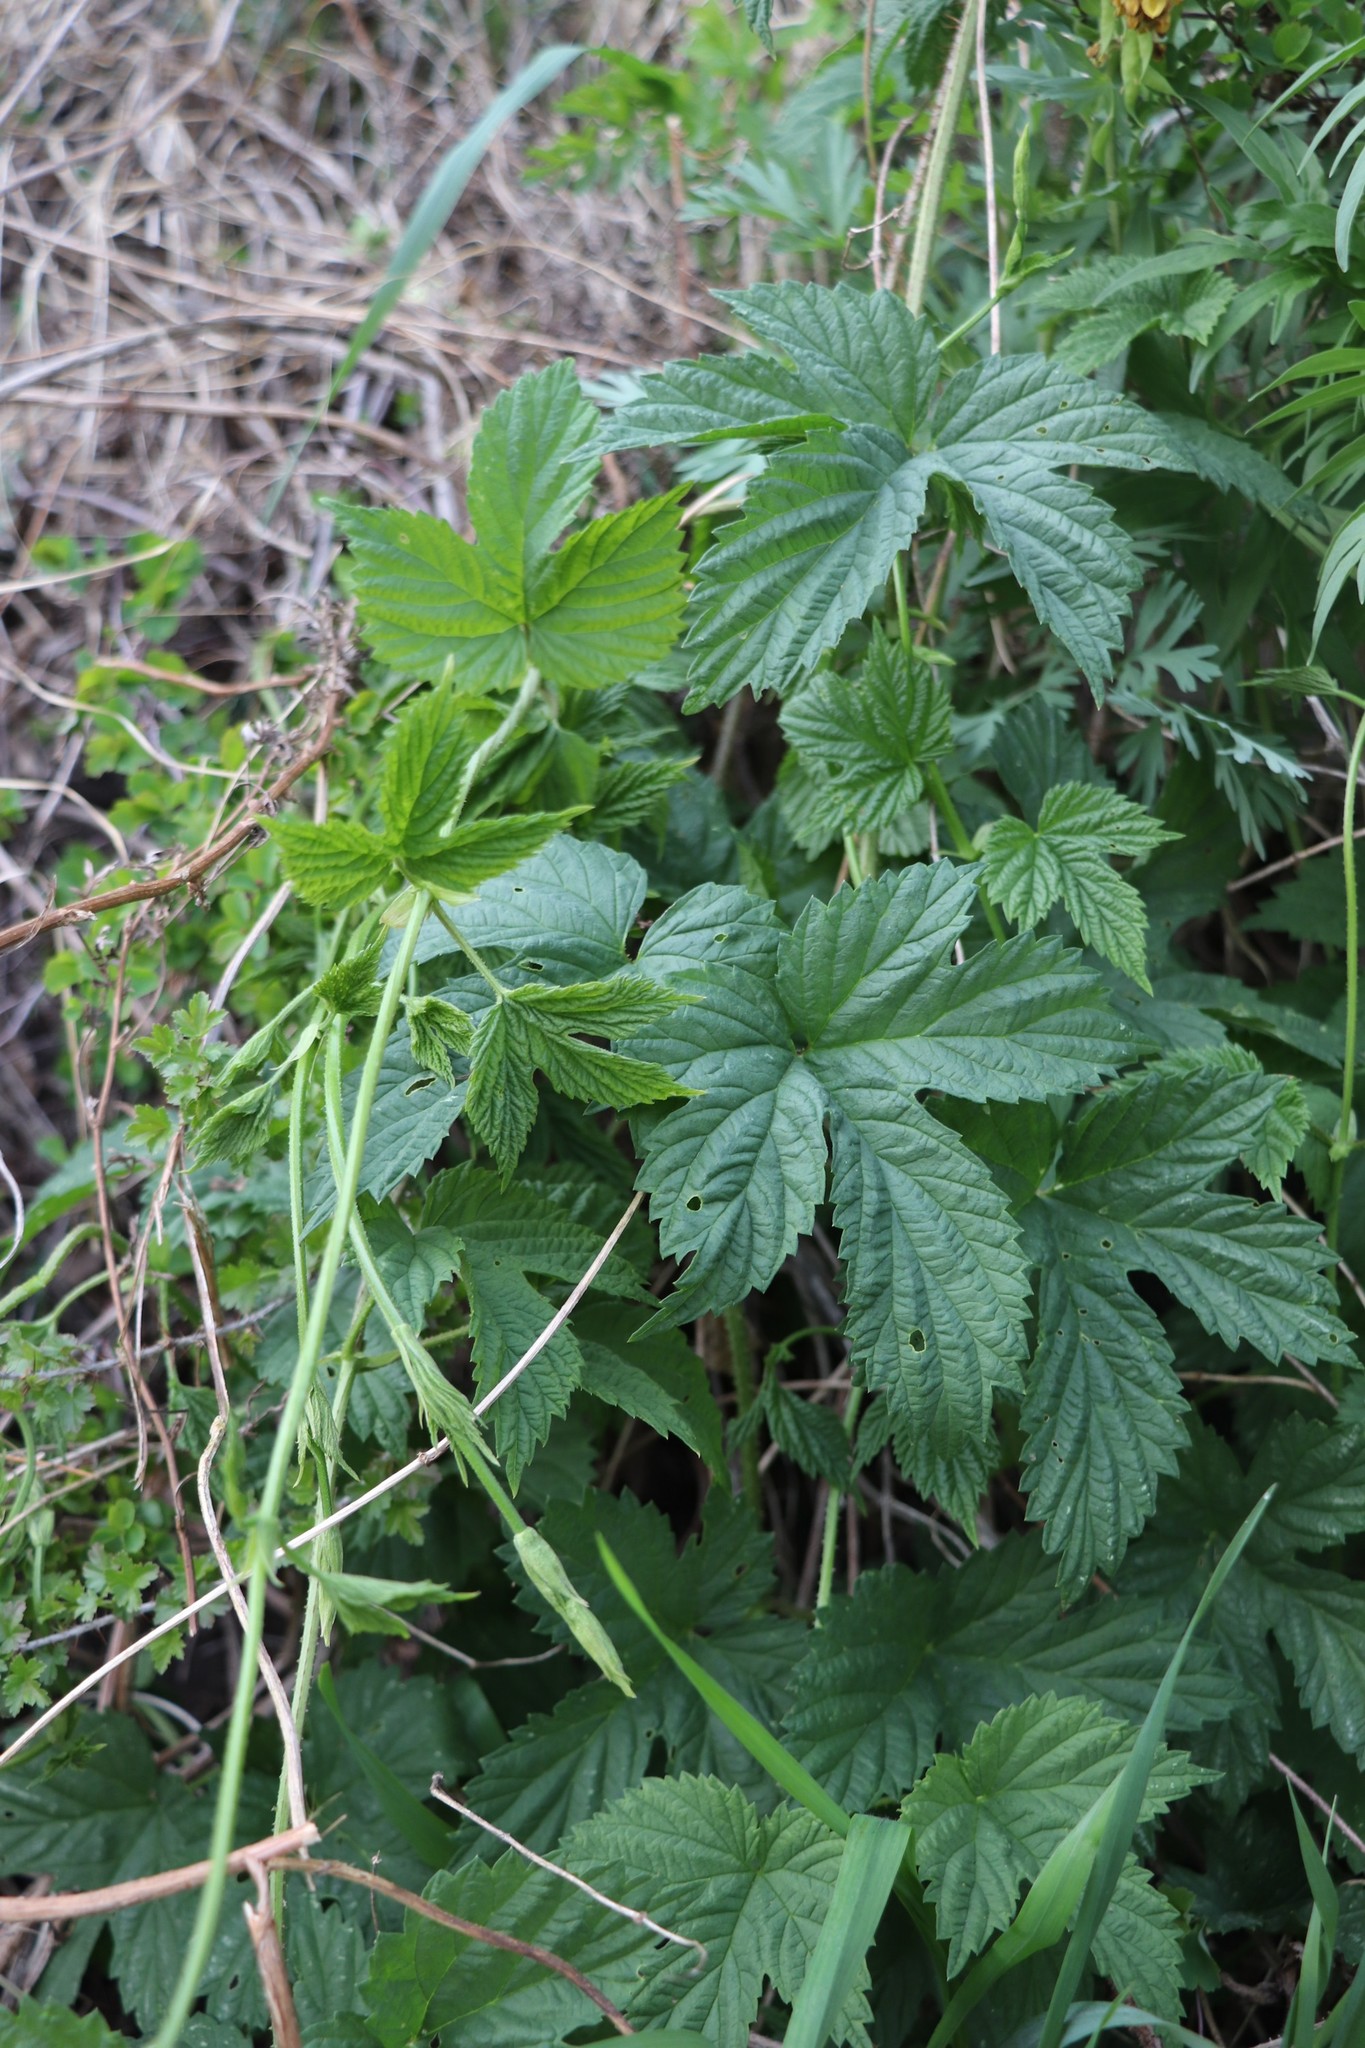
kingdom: Plantae
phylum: Tracheophyta
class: Magnoliopsida
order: Rosales
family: Cannabaceae
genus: Humulus
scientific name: Humulus lupulus
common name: Hop
